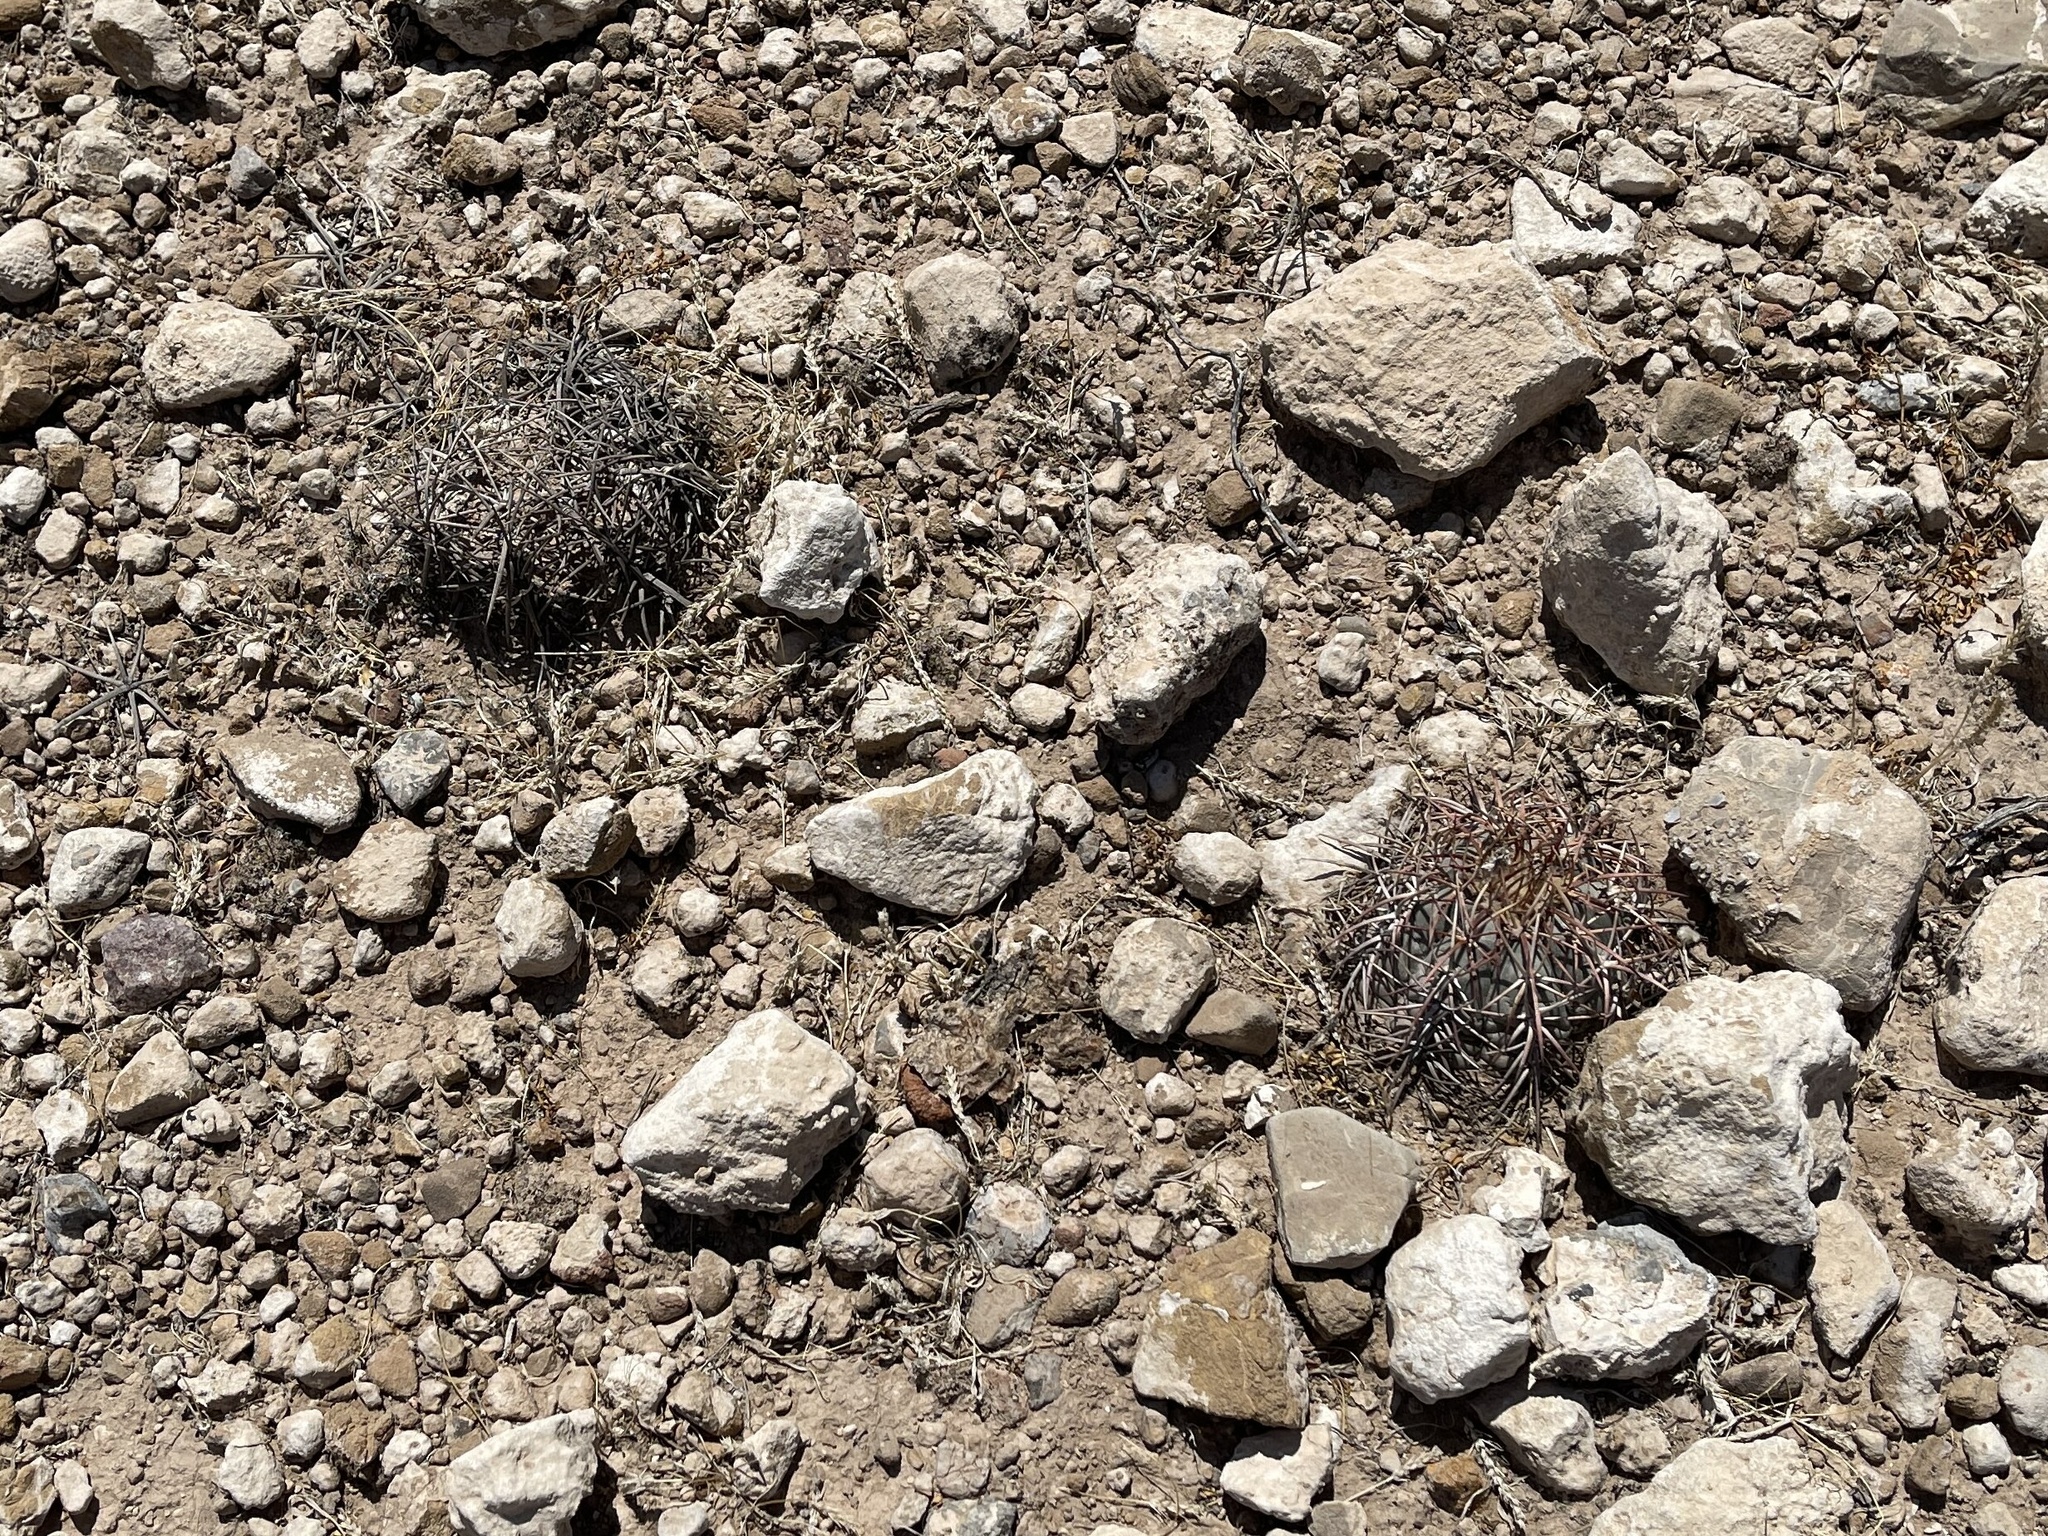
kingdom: Plantae
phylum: Tracheophyta
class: Magnoliopsida
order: Caryophyllales
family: Cactaceae
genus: Echinocactus
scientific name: Echinocactus horizonthalonius
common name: Devilshead
